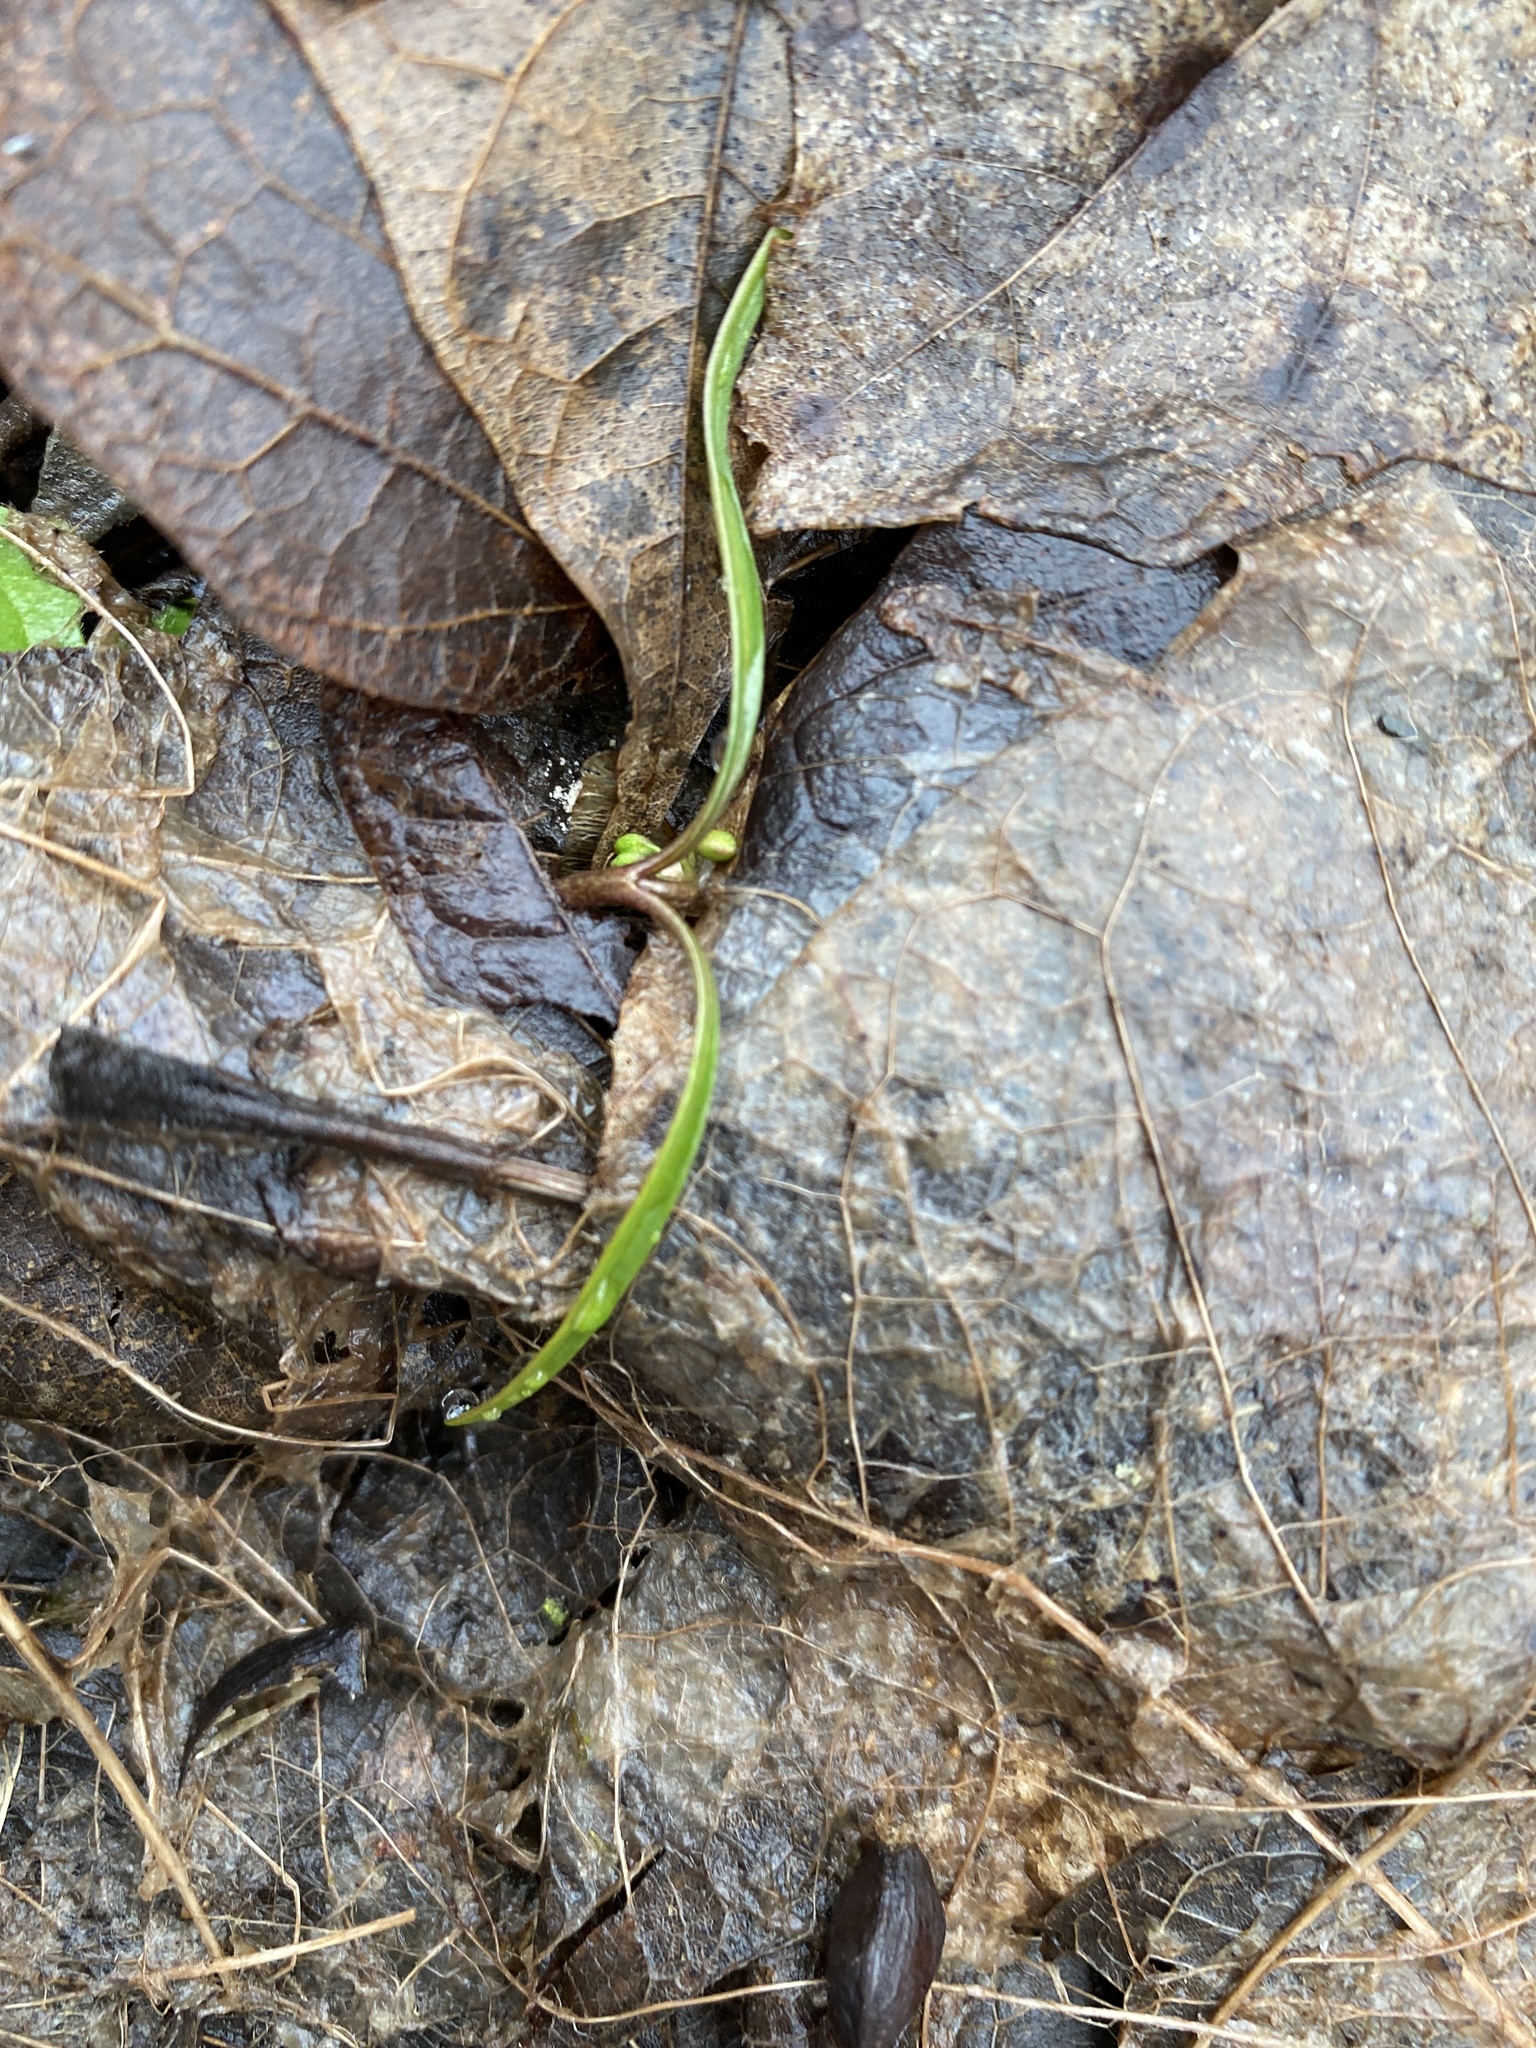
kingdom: Plantae
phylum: Tracheophyta
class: Magnoliopsida
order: Caryophyllales
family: Montiaceae
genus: Claytonia
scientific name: Claytonia virginica
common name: Virginia springbeauty
